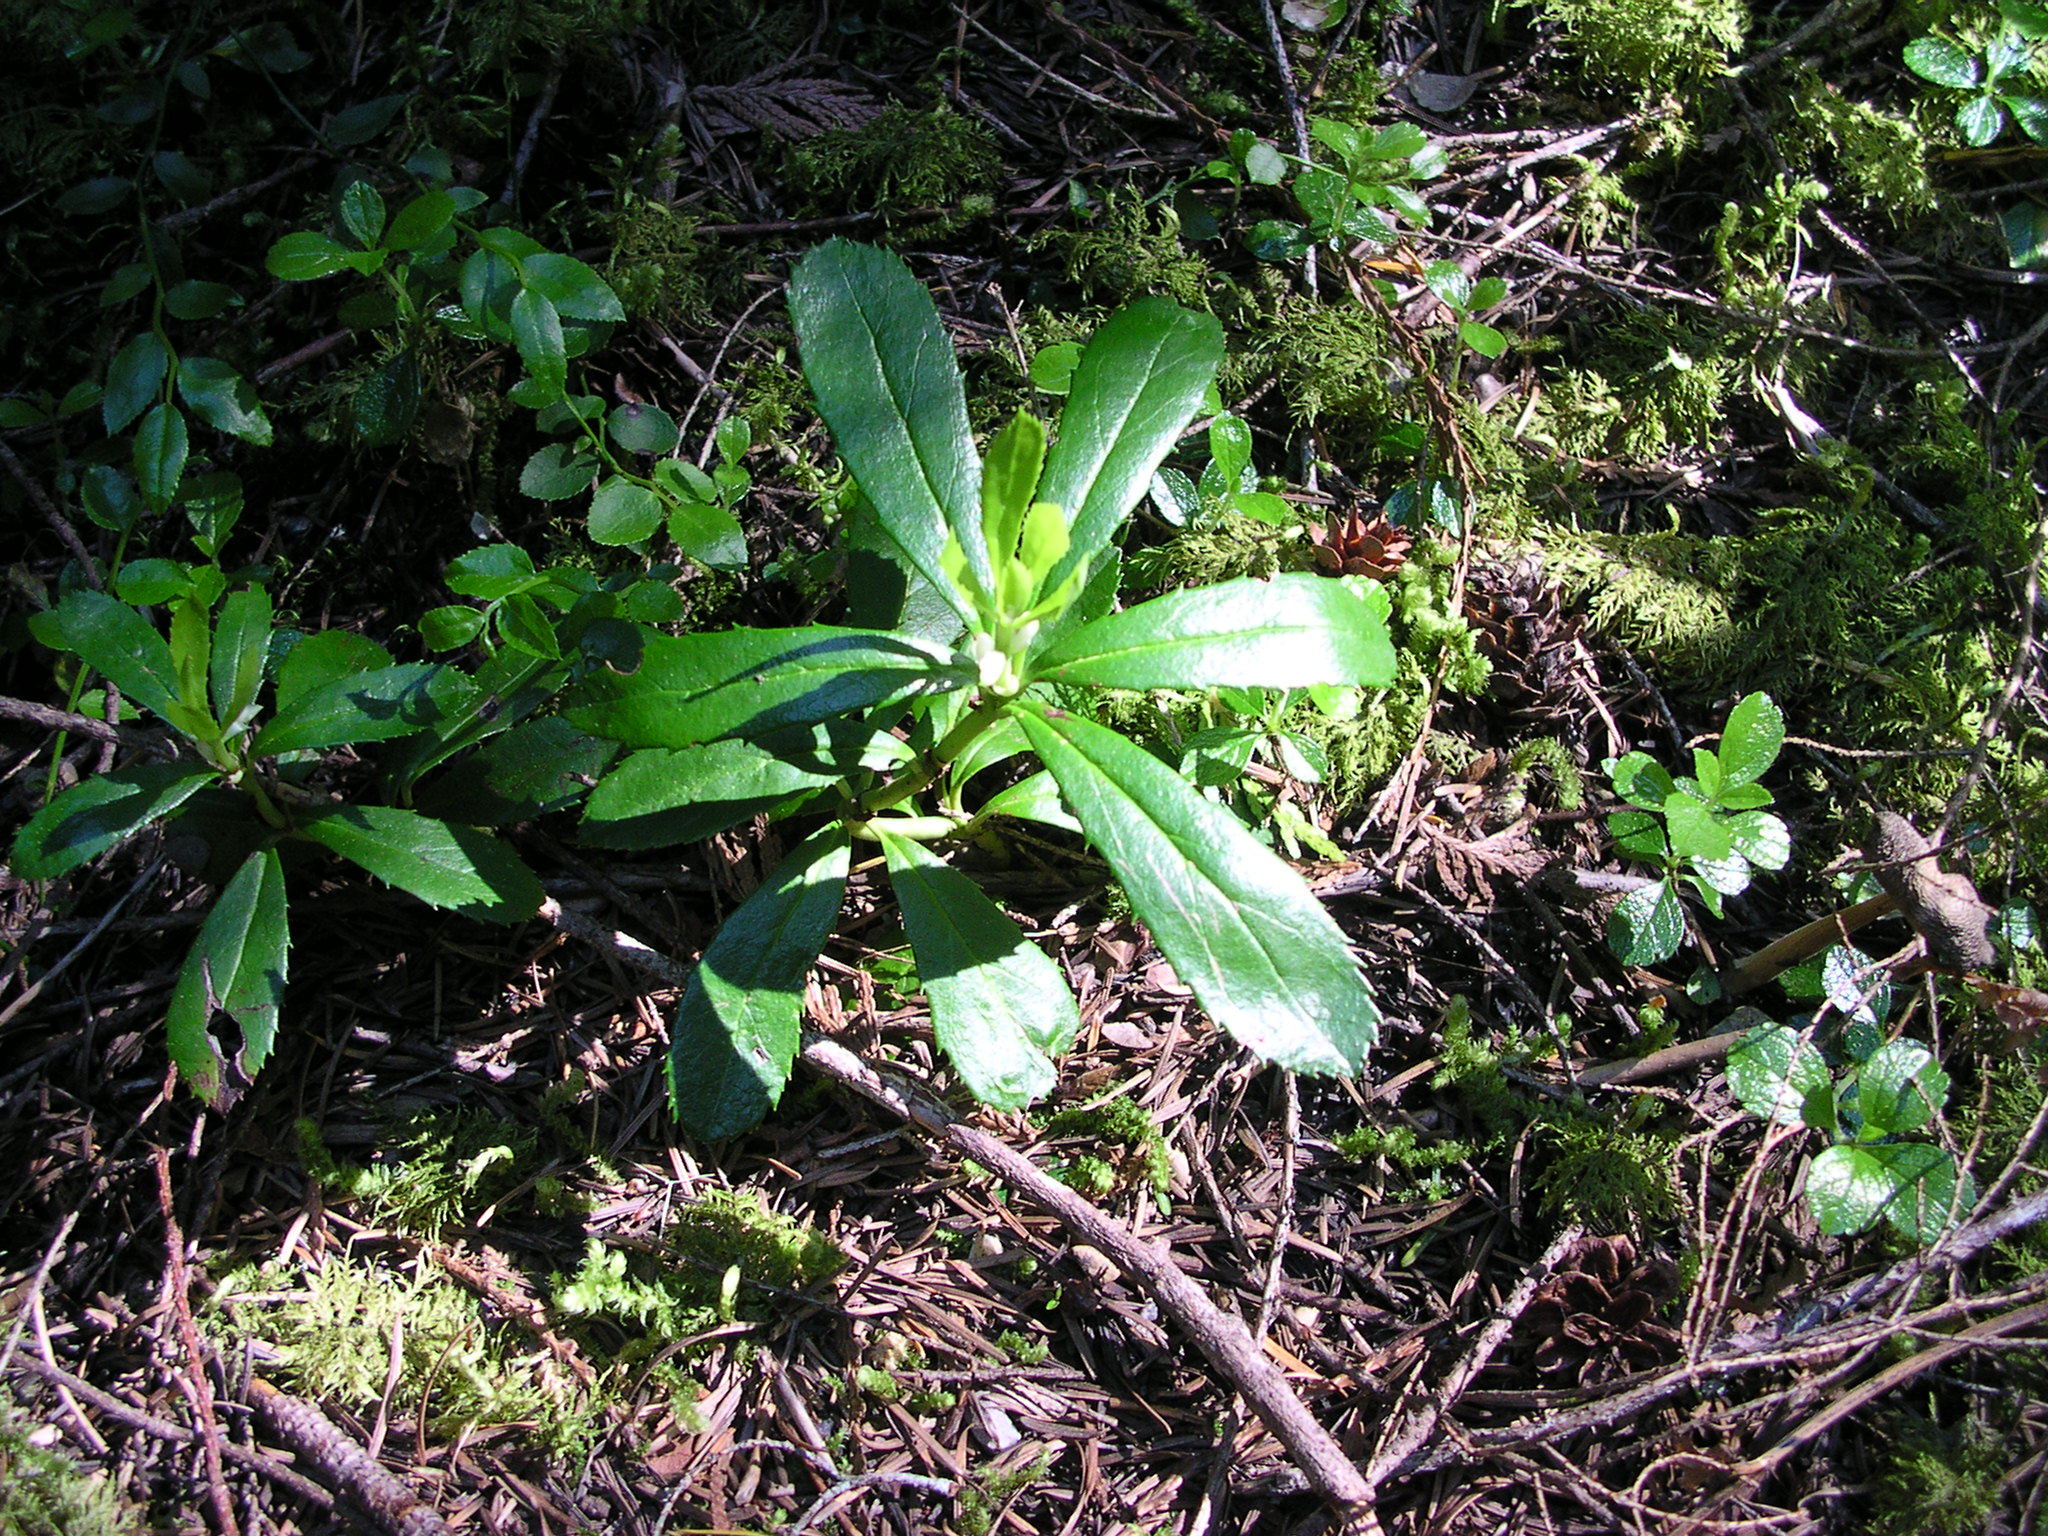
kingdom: Plantae
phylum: Tracheophyta
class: Magnoliopsida
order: Ericales
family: Ericaceae
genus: Chimaphila
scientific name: Chimaphila umbellata
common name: Pipsissewa
